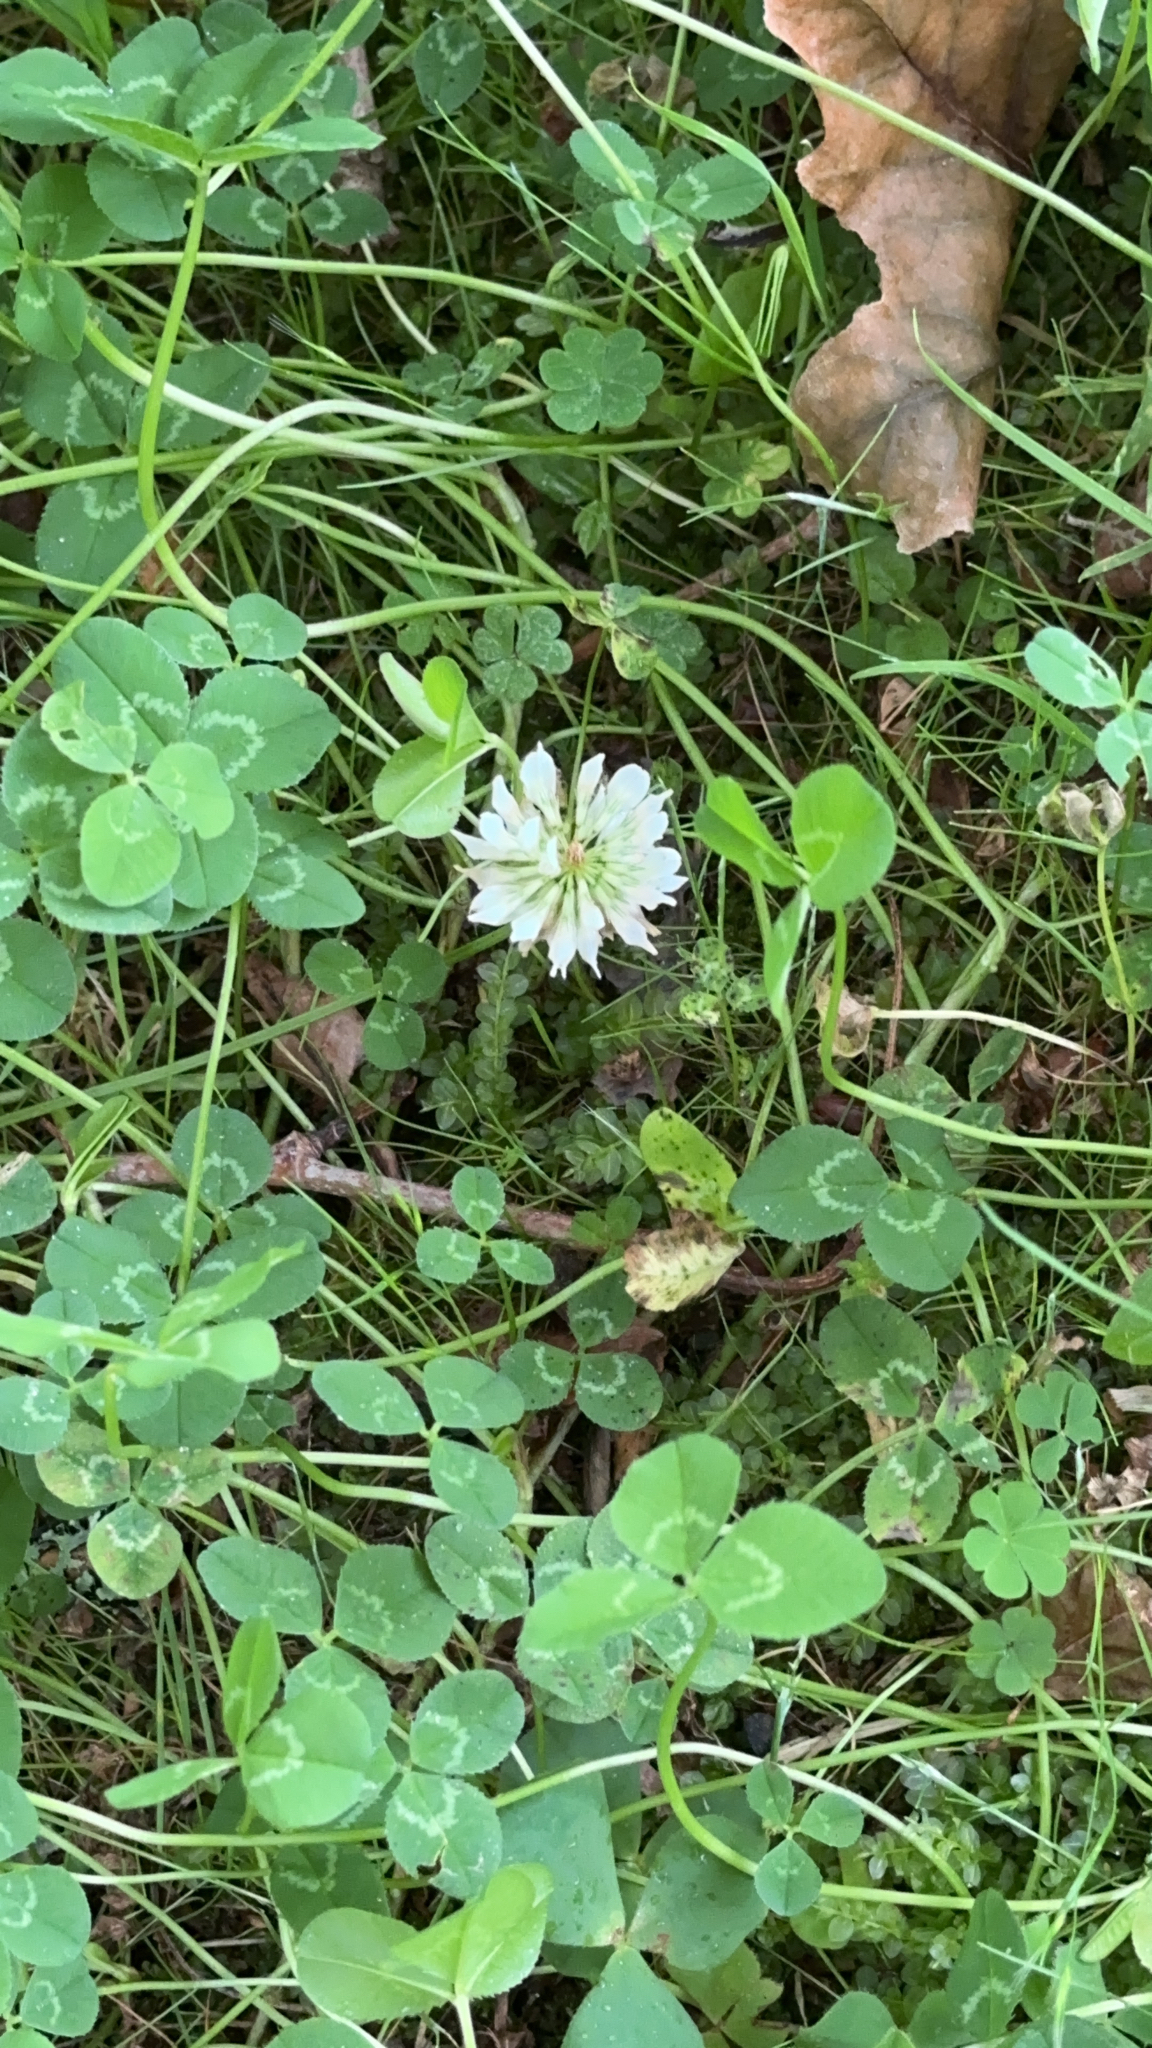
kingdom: Plantae
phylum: Tracheophyta
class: Magnoliopsida
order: Fabales
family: Fabaceae
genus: Trifolium
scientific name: Trifolium repens
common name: White clover
